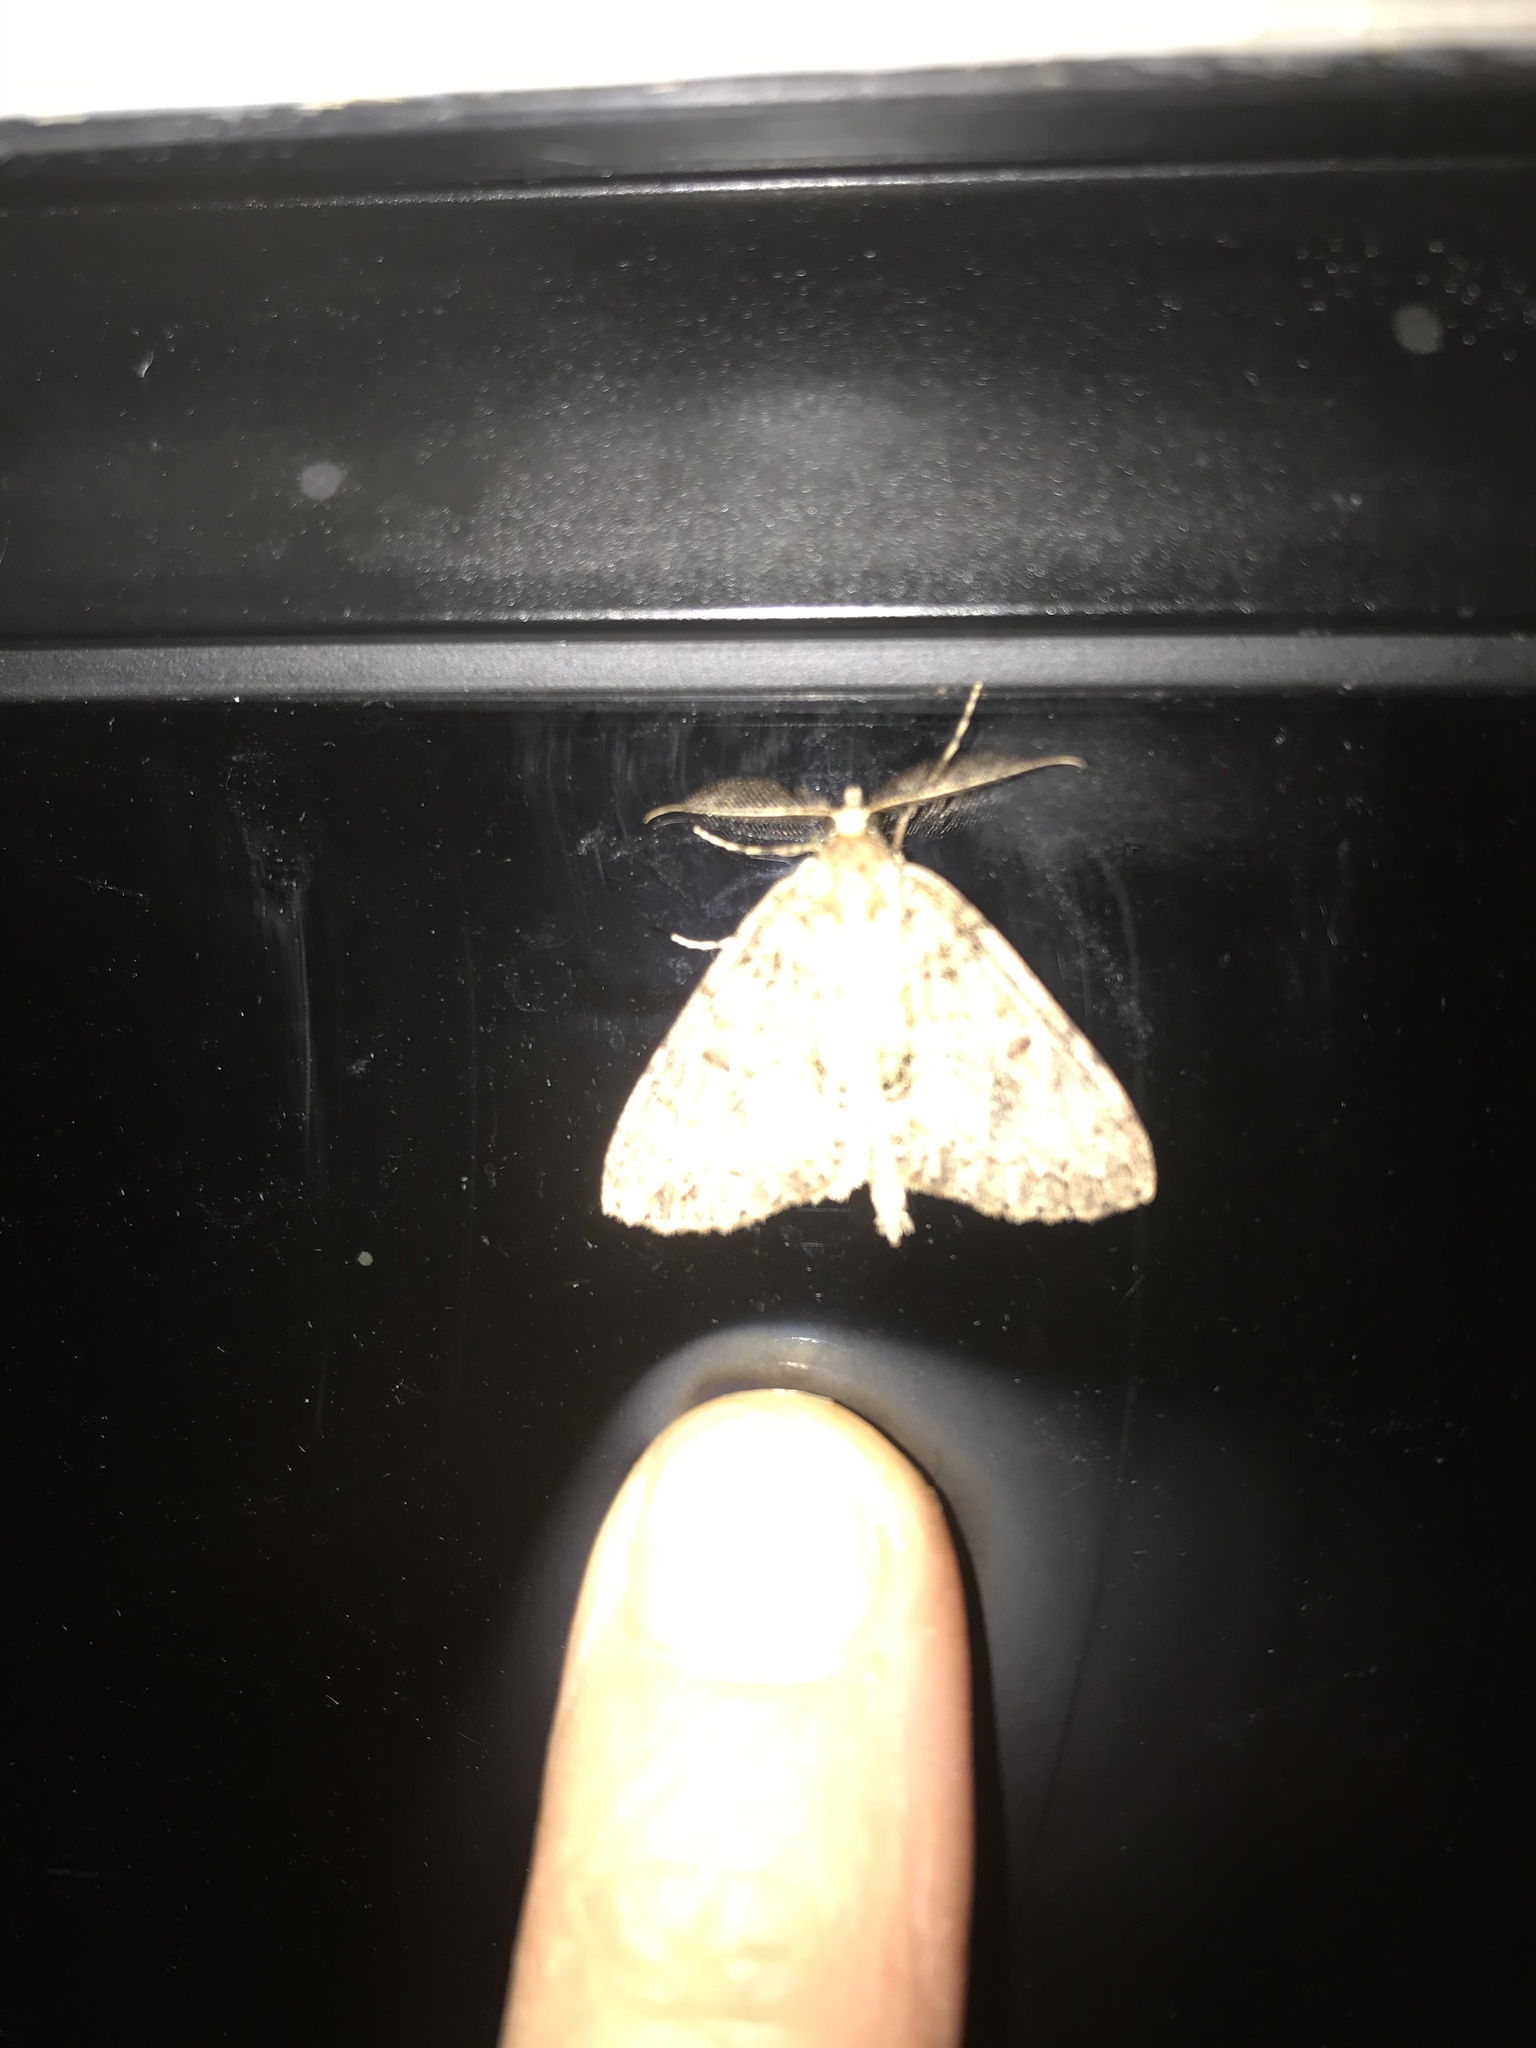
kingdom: Animalia
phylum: Arthropoda
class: Insecta
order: Lepidoptera
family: Geometridae
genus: Pseudocoremia
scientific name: Pseudocoremia suavis
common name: Common forest looper
